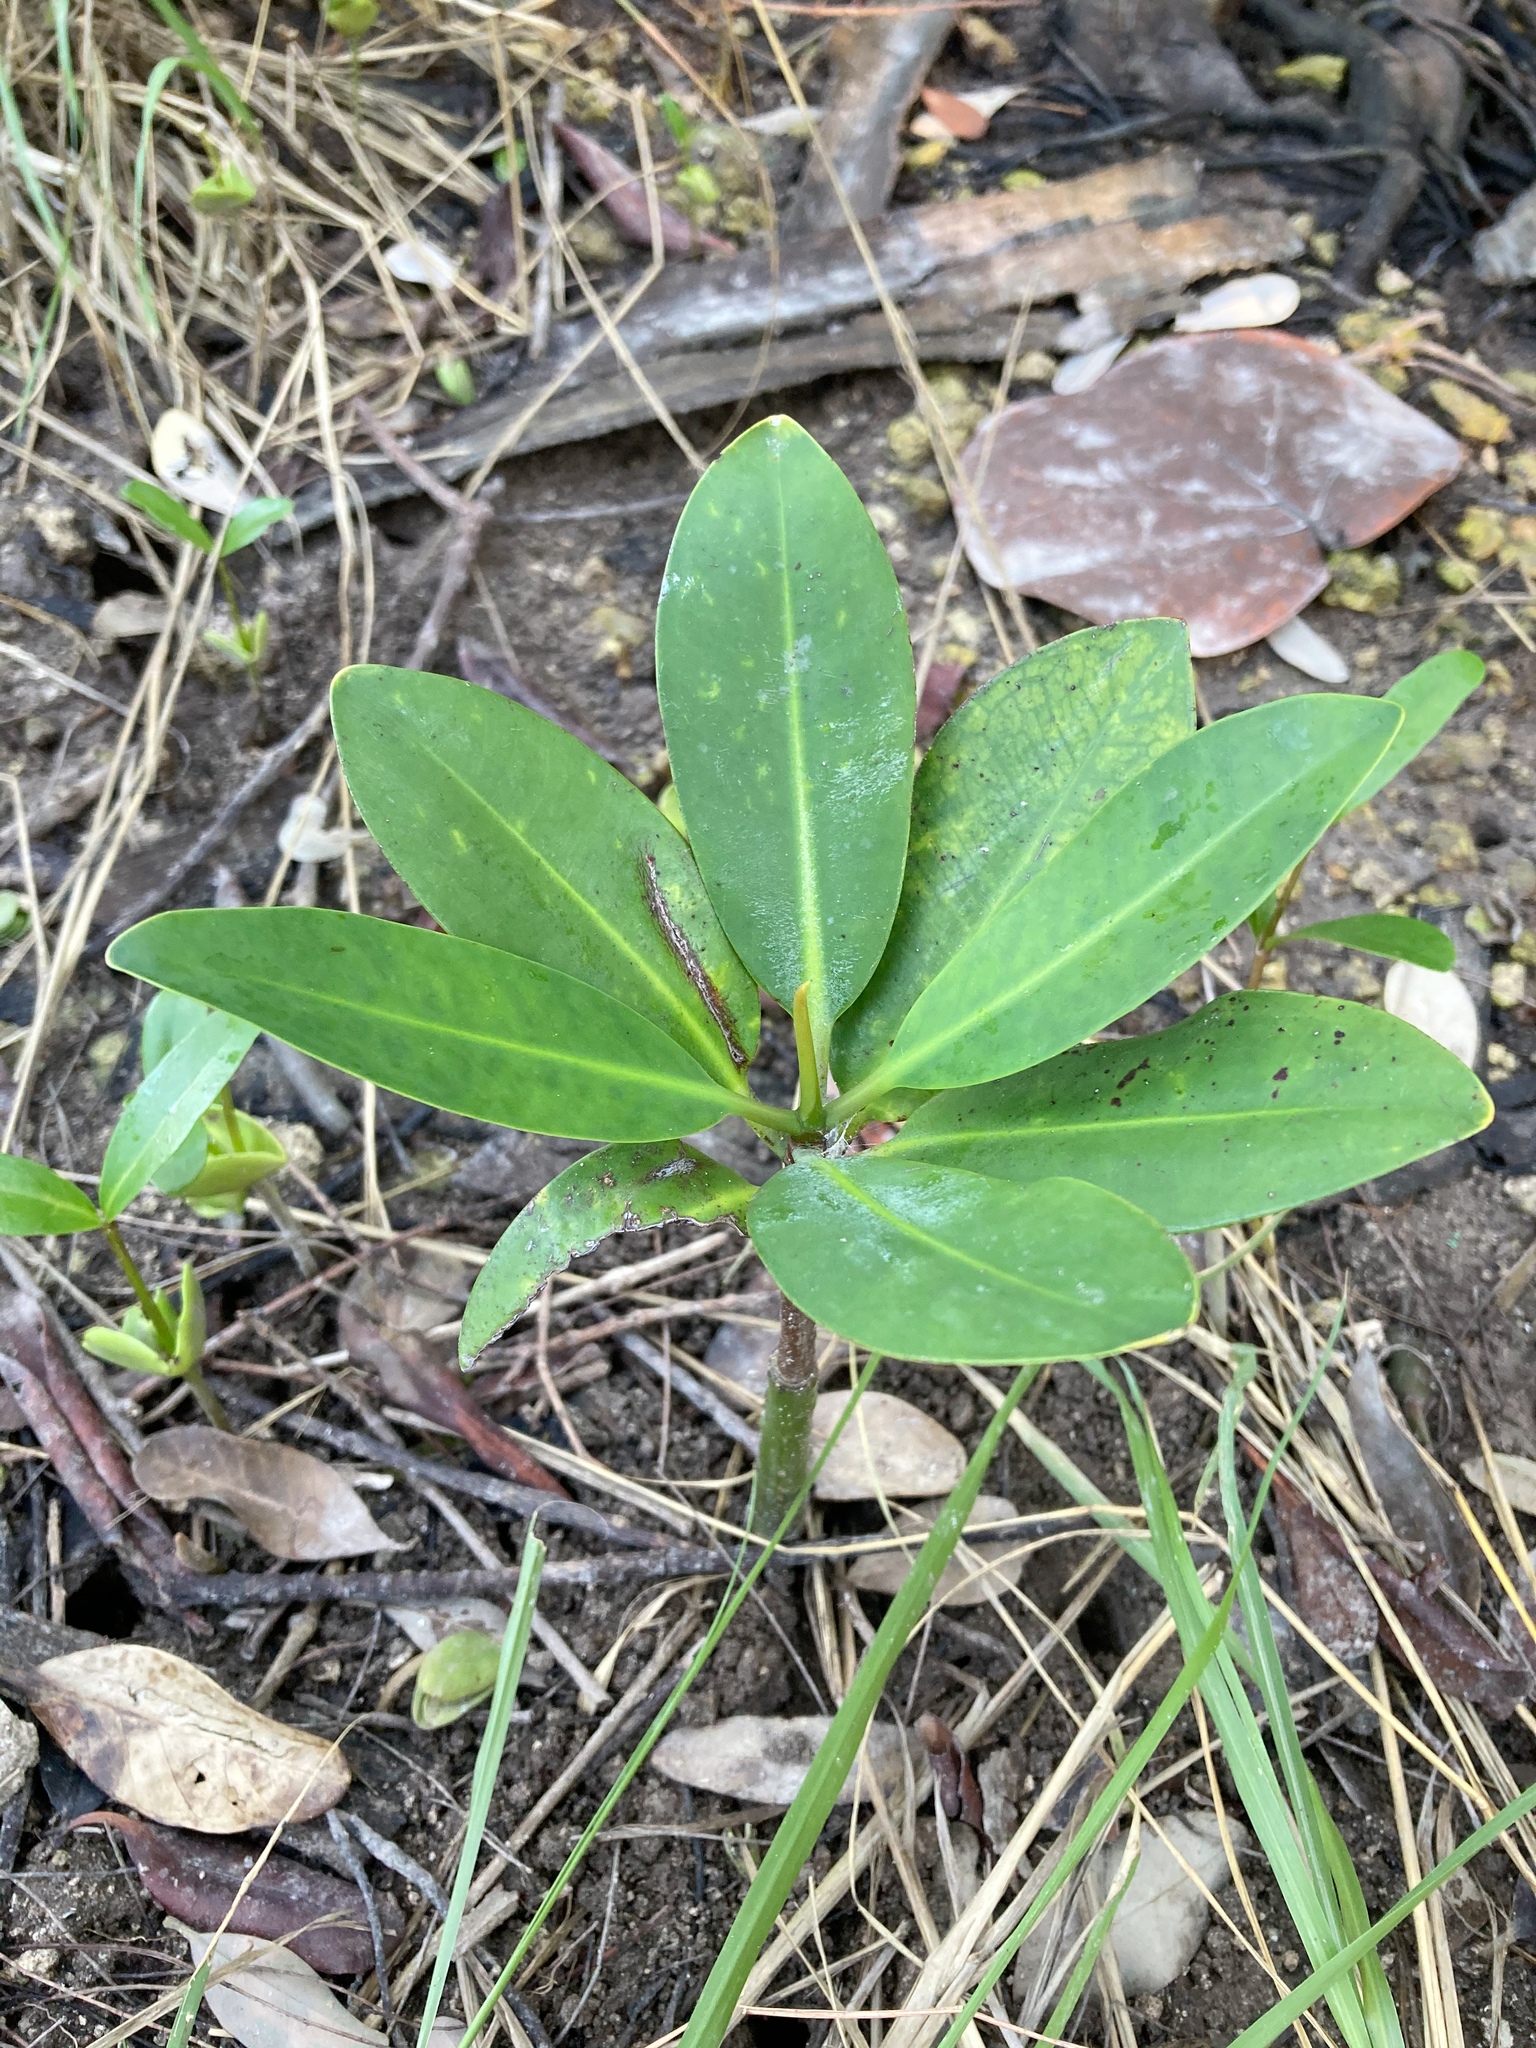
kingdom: Plantae
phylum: Tracheophyta
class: Magnoliopsida
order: Malpighiales
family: Rhizophoraceae
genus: Rhizophora
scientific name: Rhizophora mangle
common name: Red mangrove
